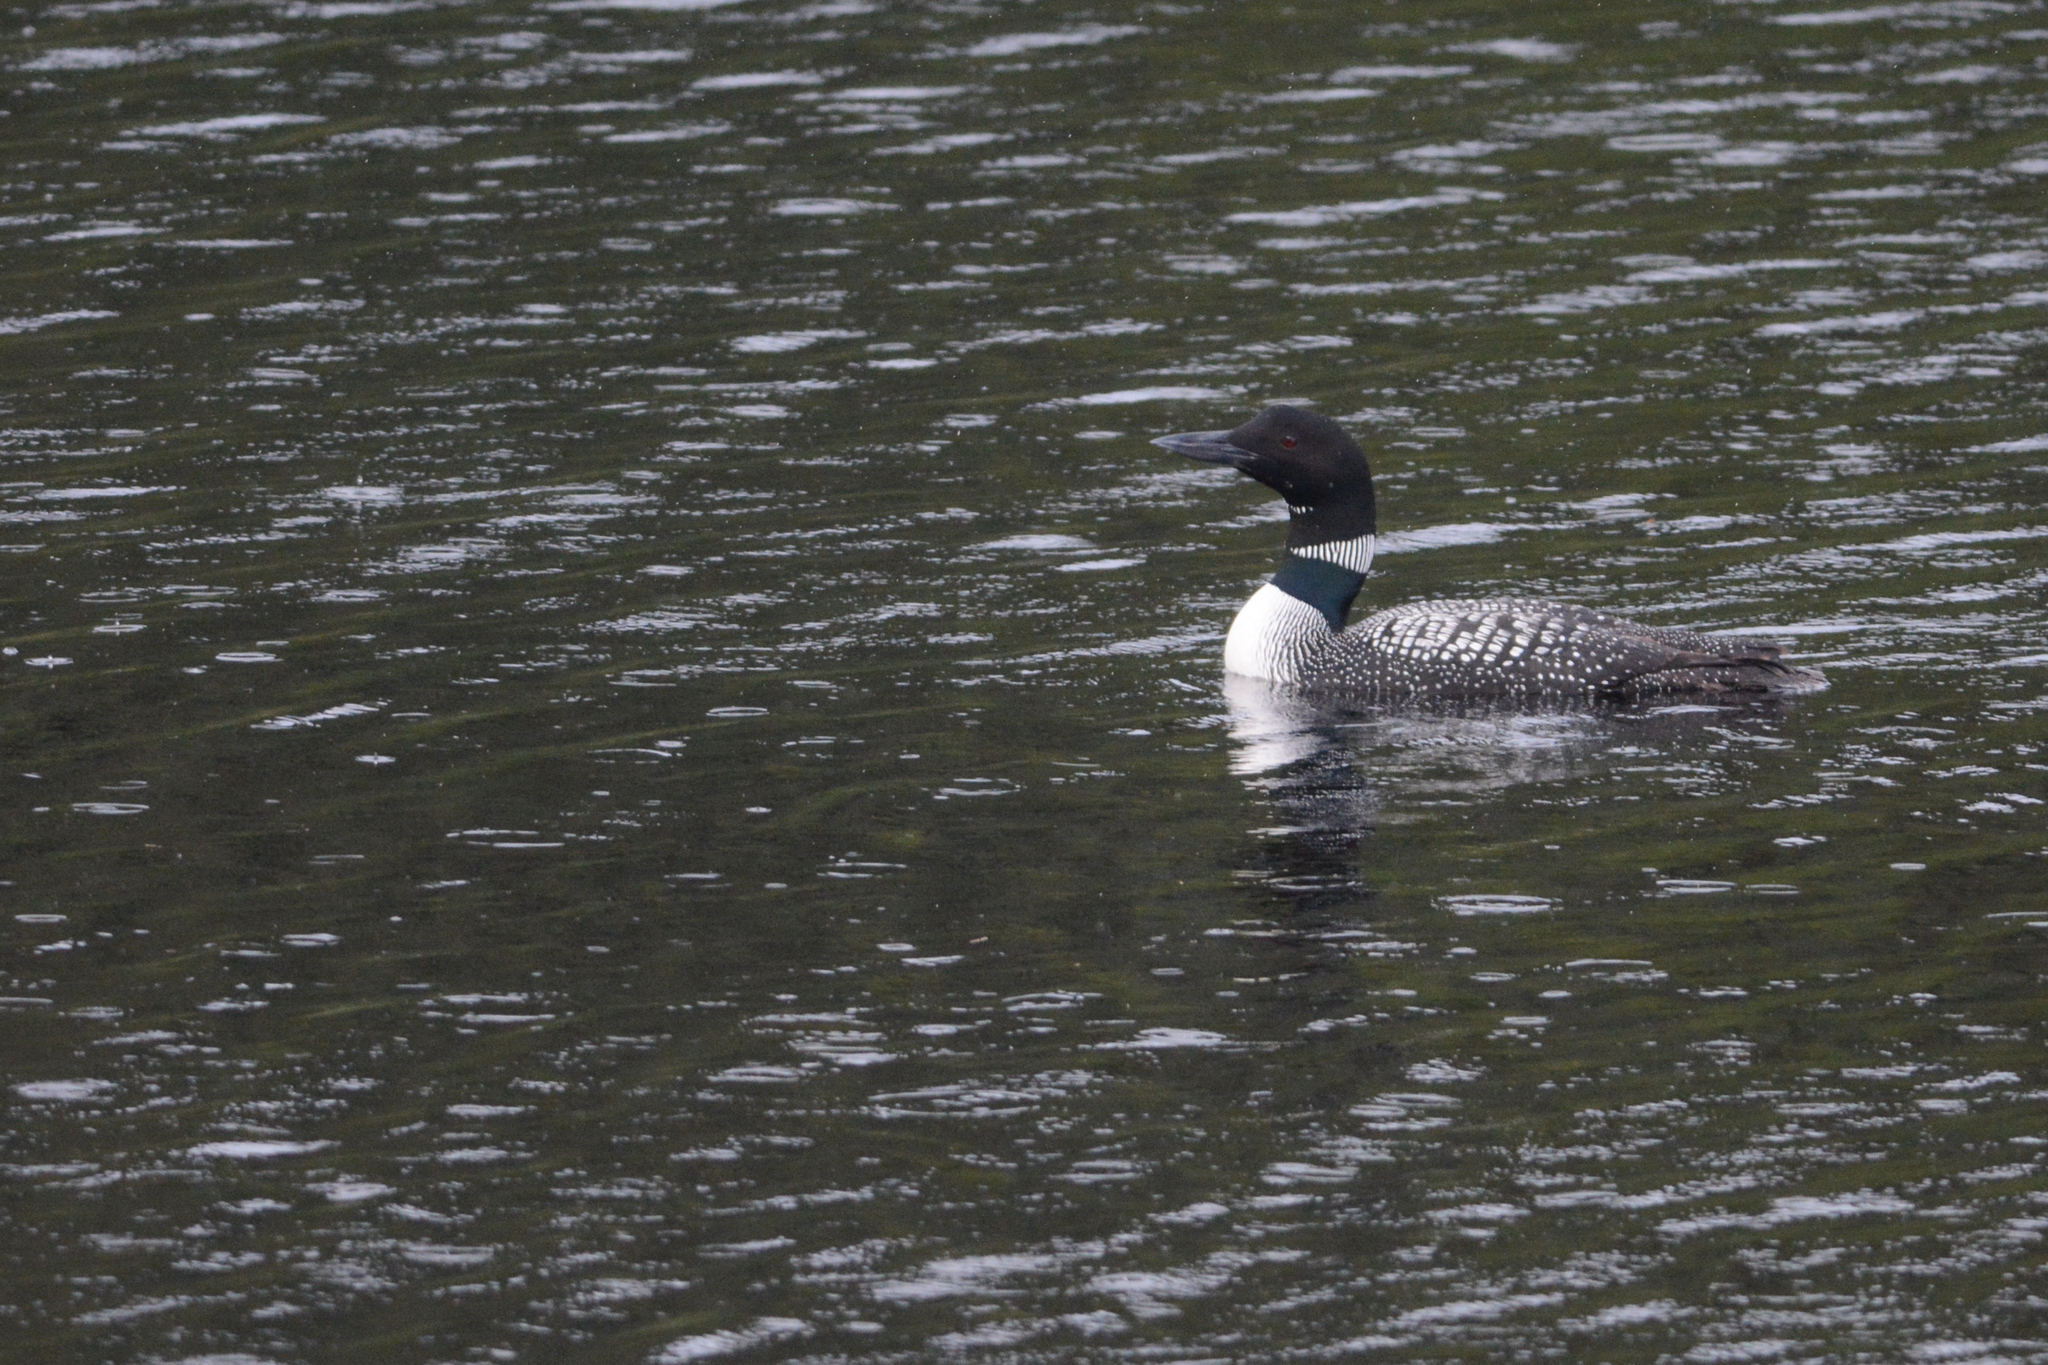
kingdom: Animalia
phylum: Chordata
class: Aves
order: Gaviiformes
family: Gaviidae
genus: Gavia
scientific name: Gavia immer
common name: Common loon
